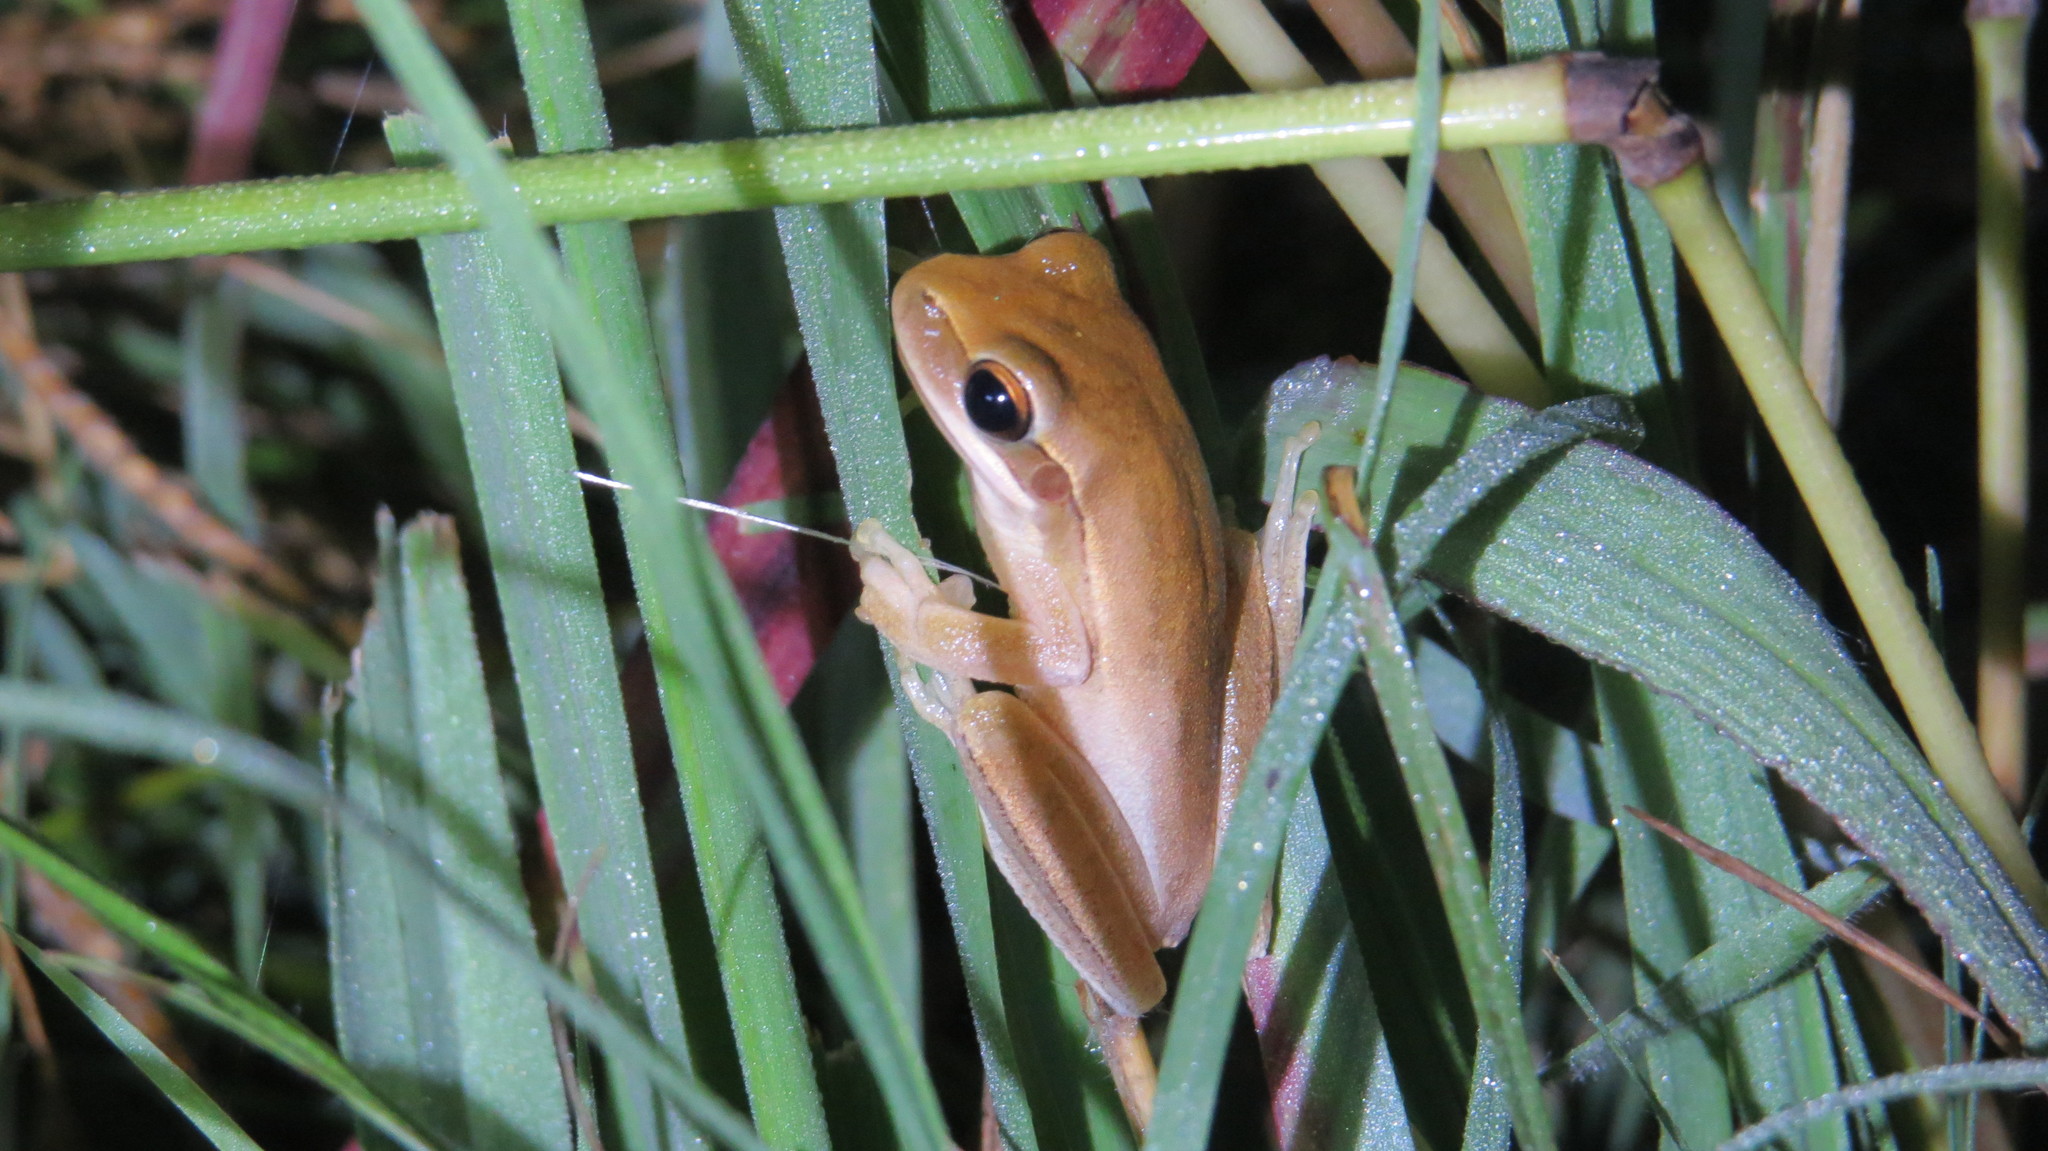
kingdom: Animalia
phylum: Chordata
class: Amphibia
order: Anura
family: Hylidae
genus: Boana
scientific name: Boana pulchella
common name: Montevideo treefrog
